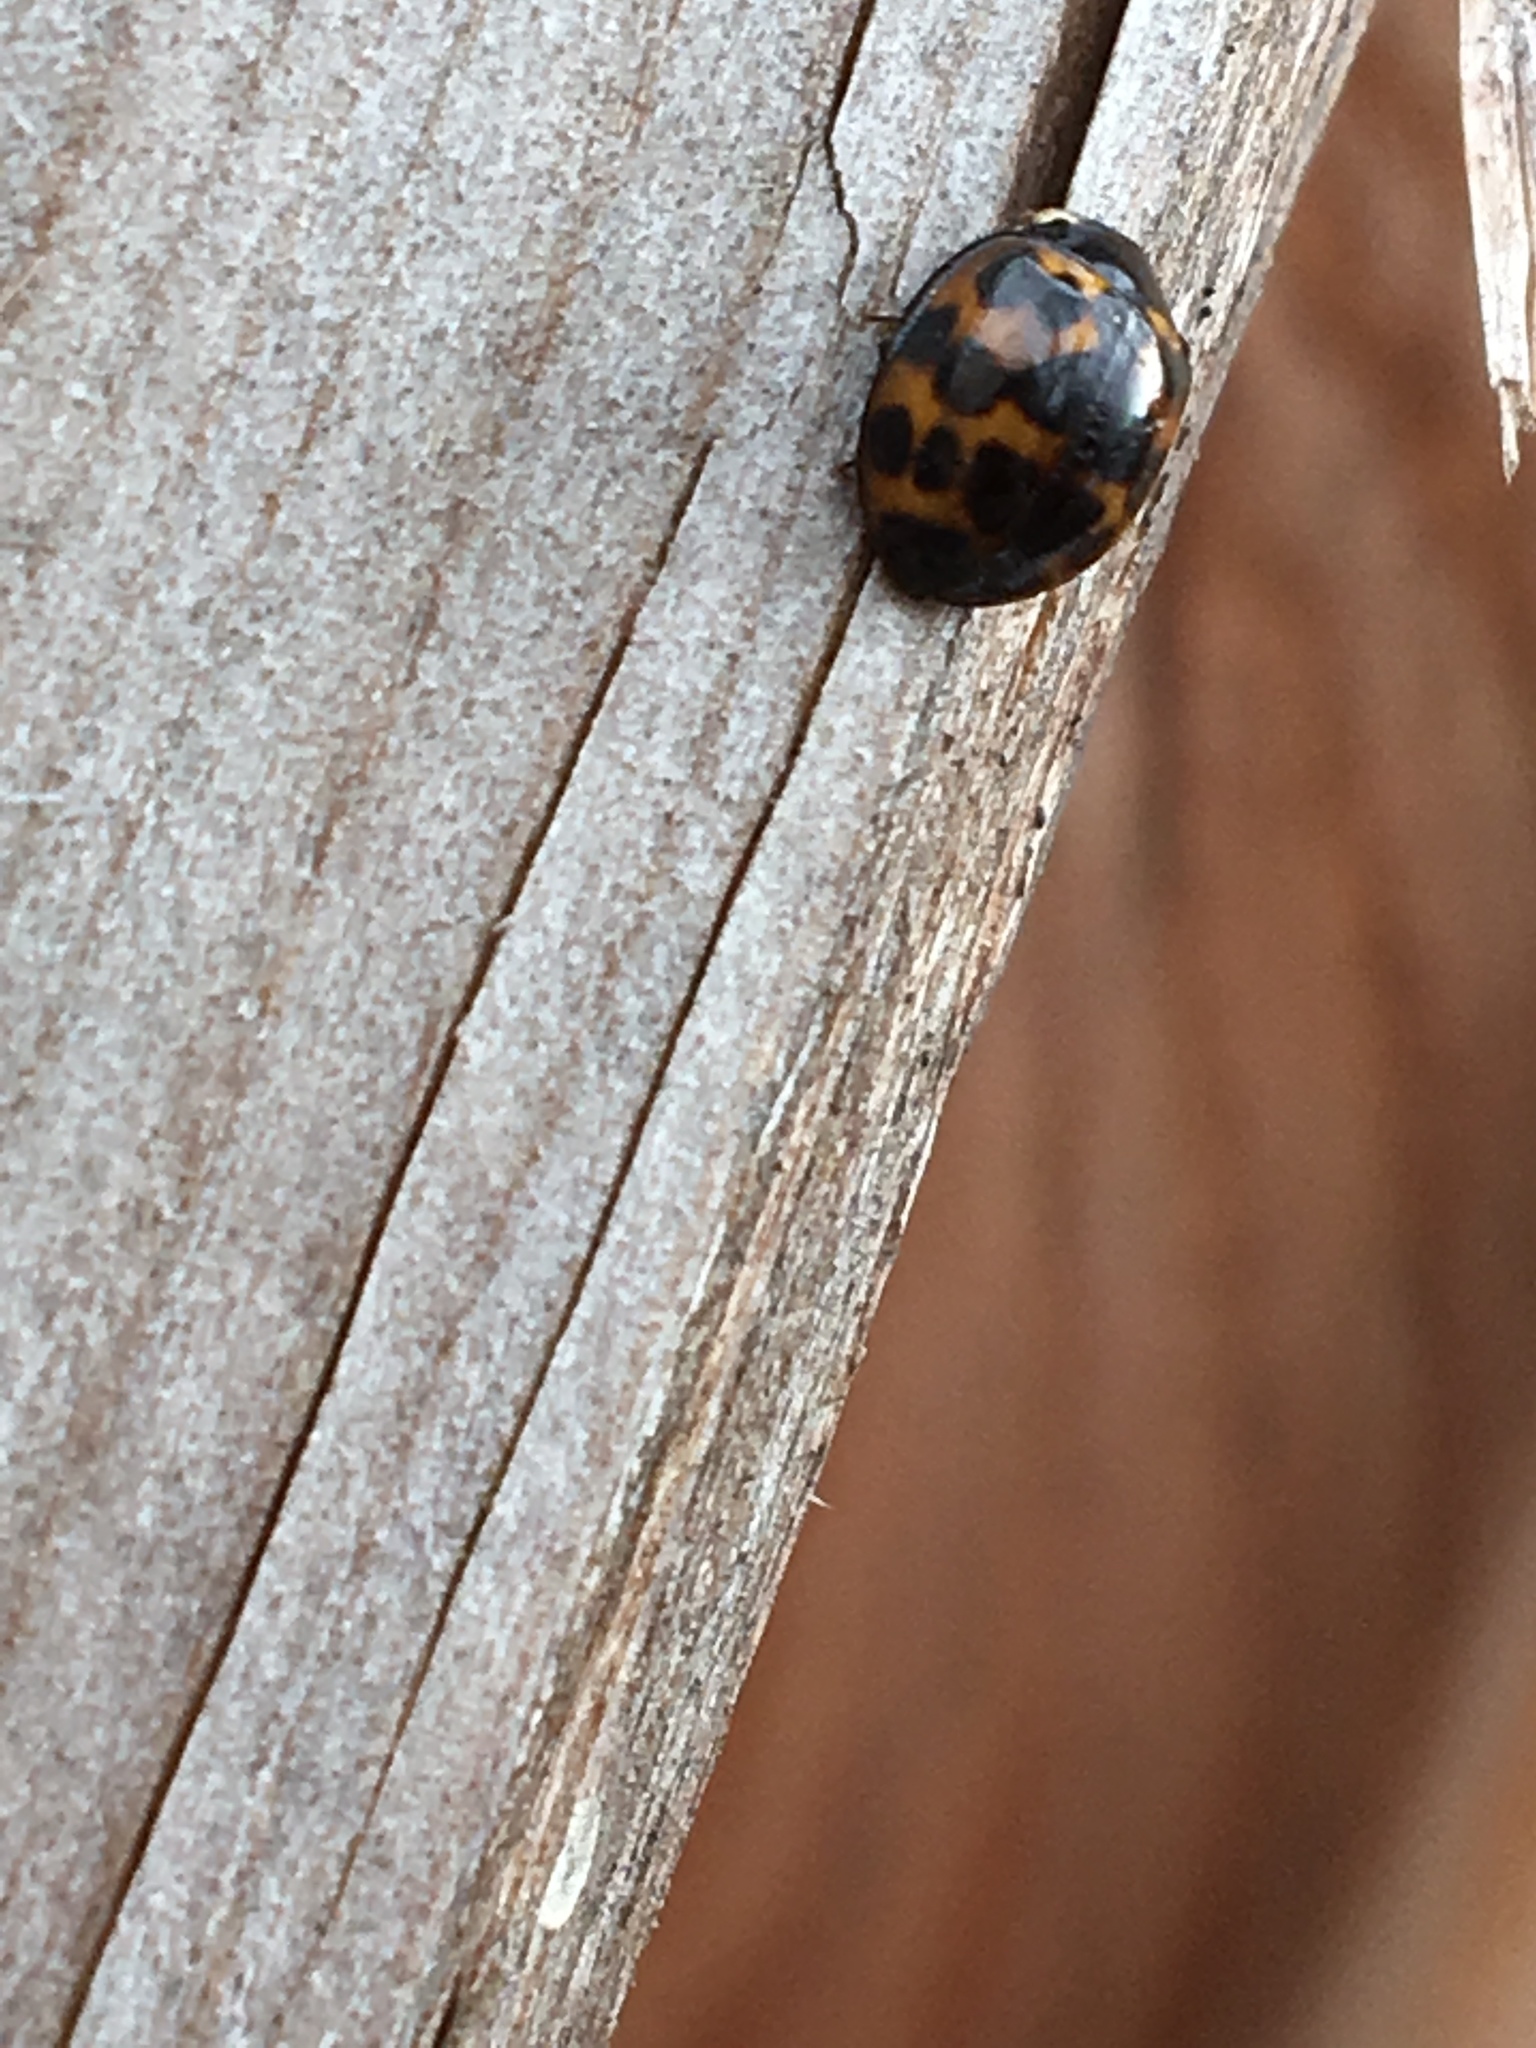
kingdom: Animalia
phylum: Arthropoda
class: Insecta
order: Coleoptera
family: Coccinellidae
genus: Harmonia
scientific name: Harmonia axyridis
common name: Harlequin ladybird
